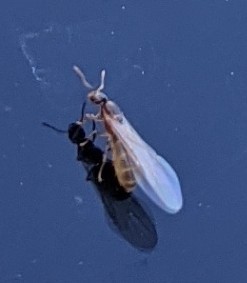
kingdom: Animalia
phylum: Arthropoda
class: Insecta
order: Hymenoptera
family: Formicidae
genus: Brachymyrmex
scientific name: Brachymyrmex depilis
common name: Hairless rover ant
